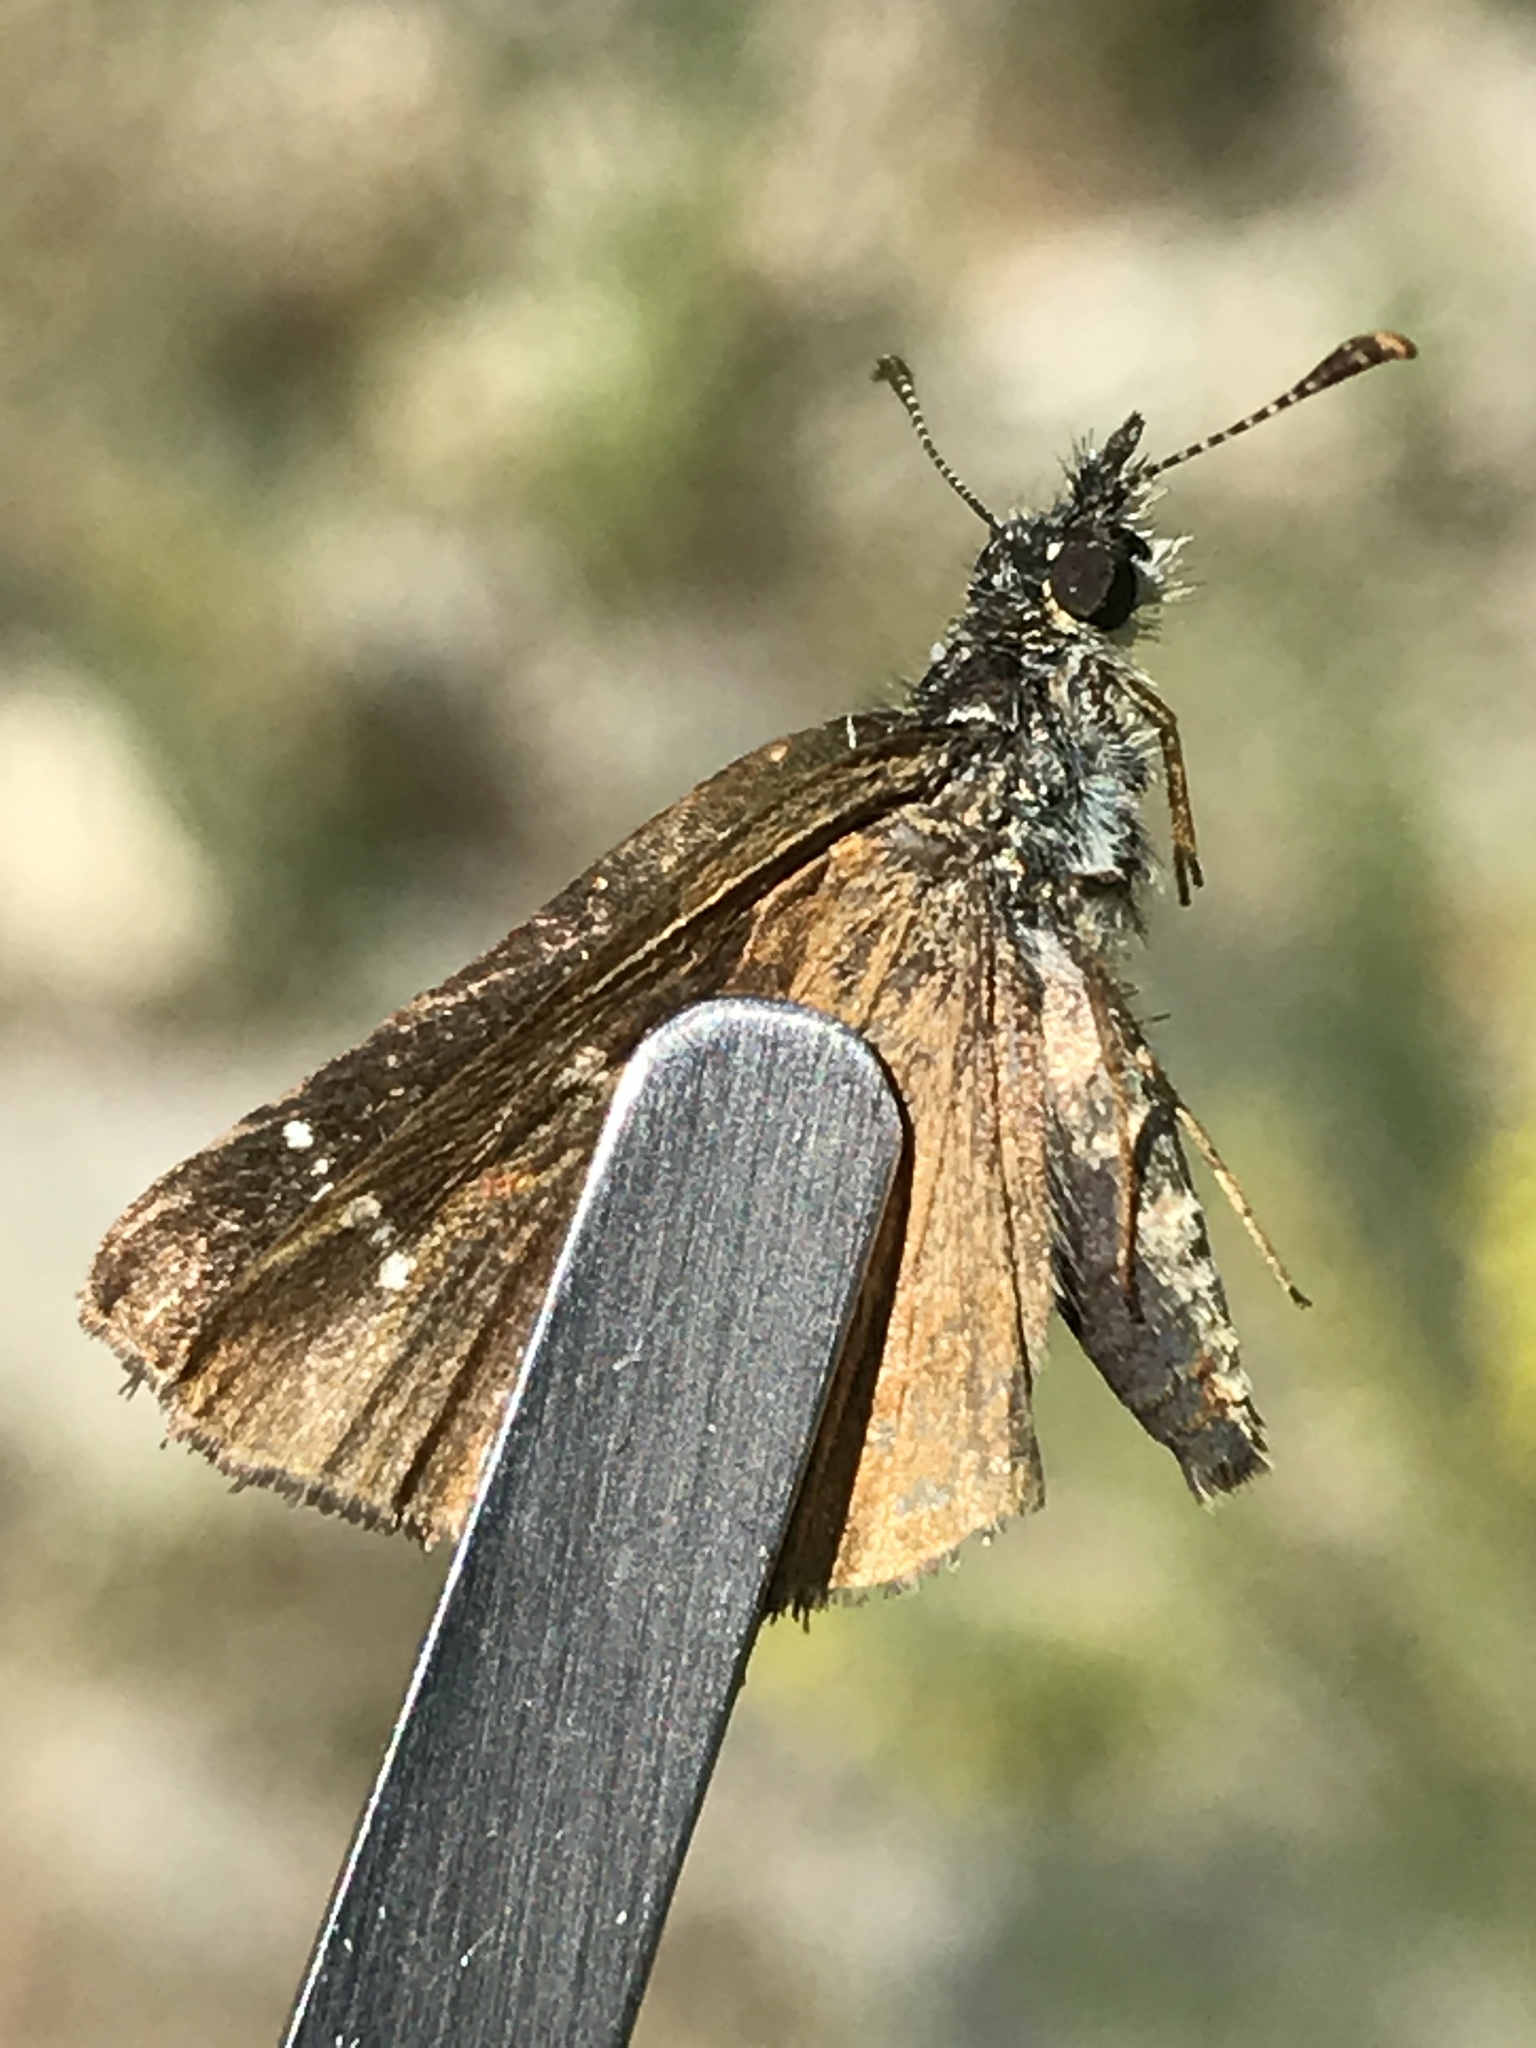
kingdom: Animalia
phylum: Arthropoda
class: Insecta
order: Lepidoptera
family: Hesperiidae
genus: Piruna
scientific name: Piruna pirus
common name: Russet skipperling
